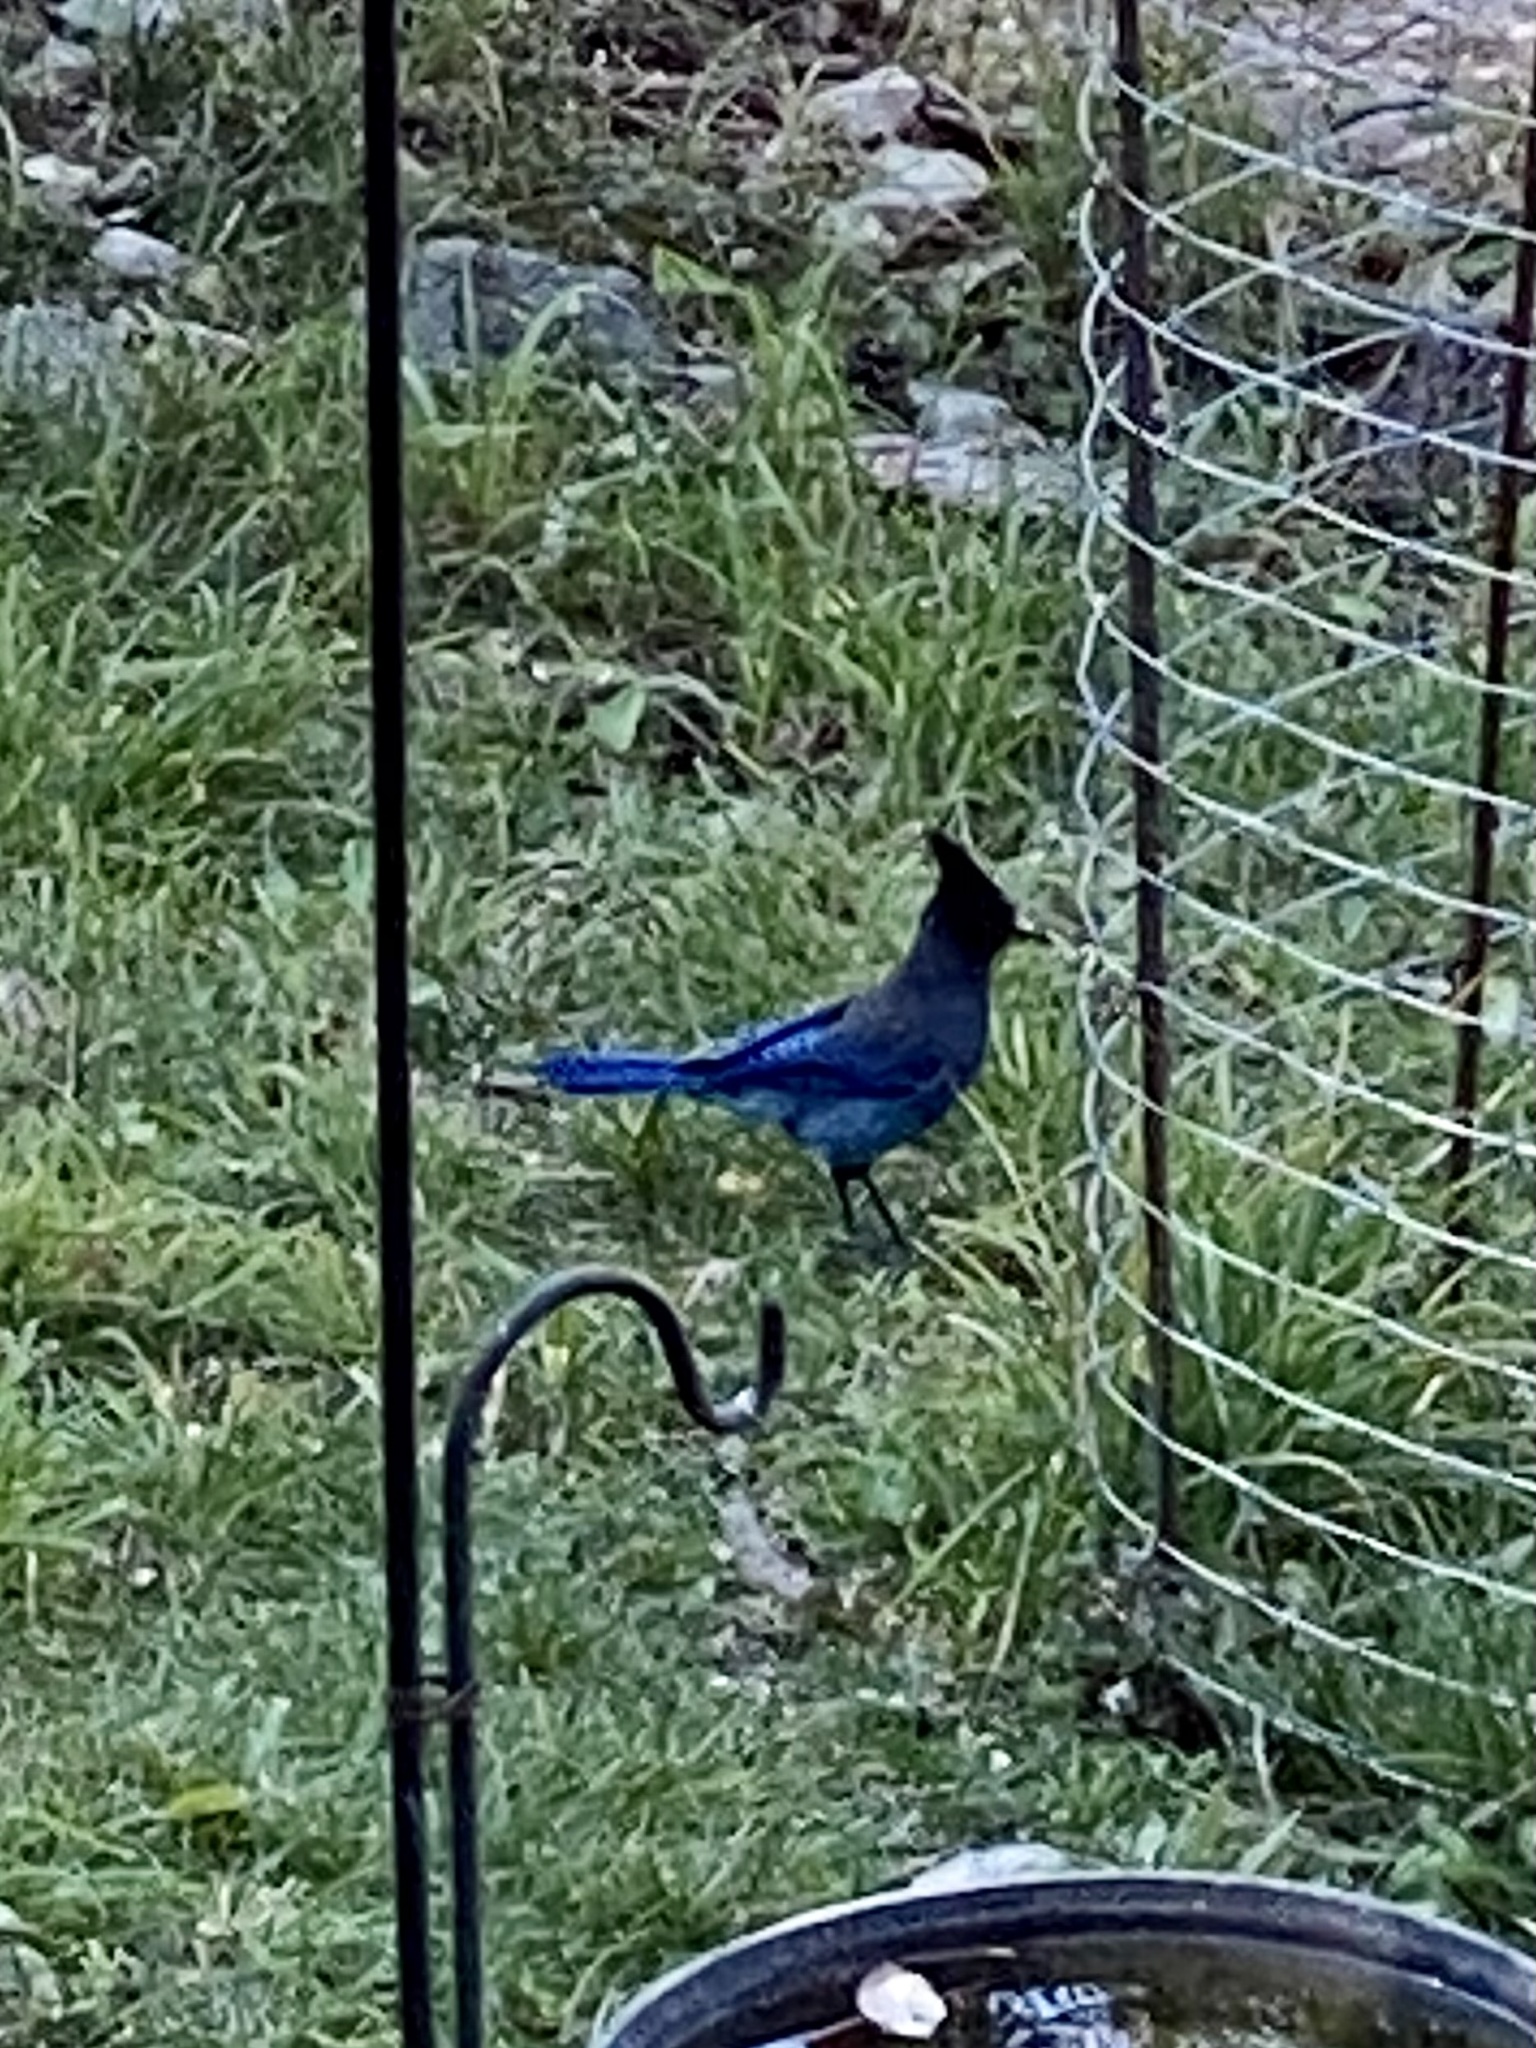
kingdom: Animalia
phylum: Chordata
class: Aves
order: Passeriformes
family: Corvidae
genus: Cyanocitta
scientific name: Cyanocitta stelleri
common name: Steller's jay
